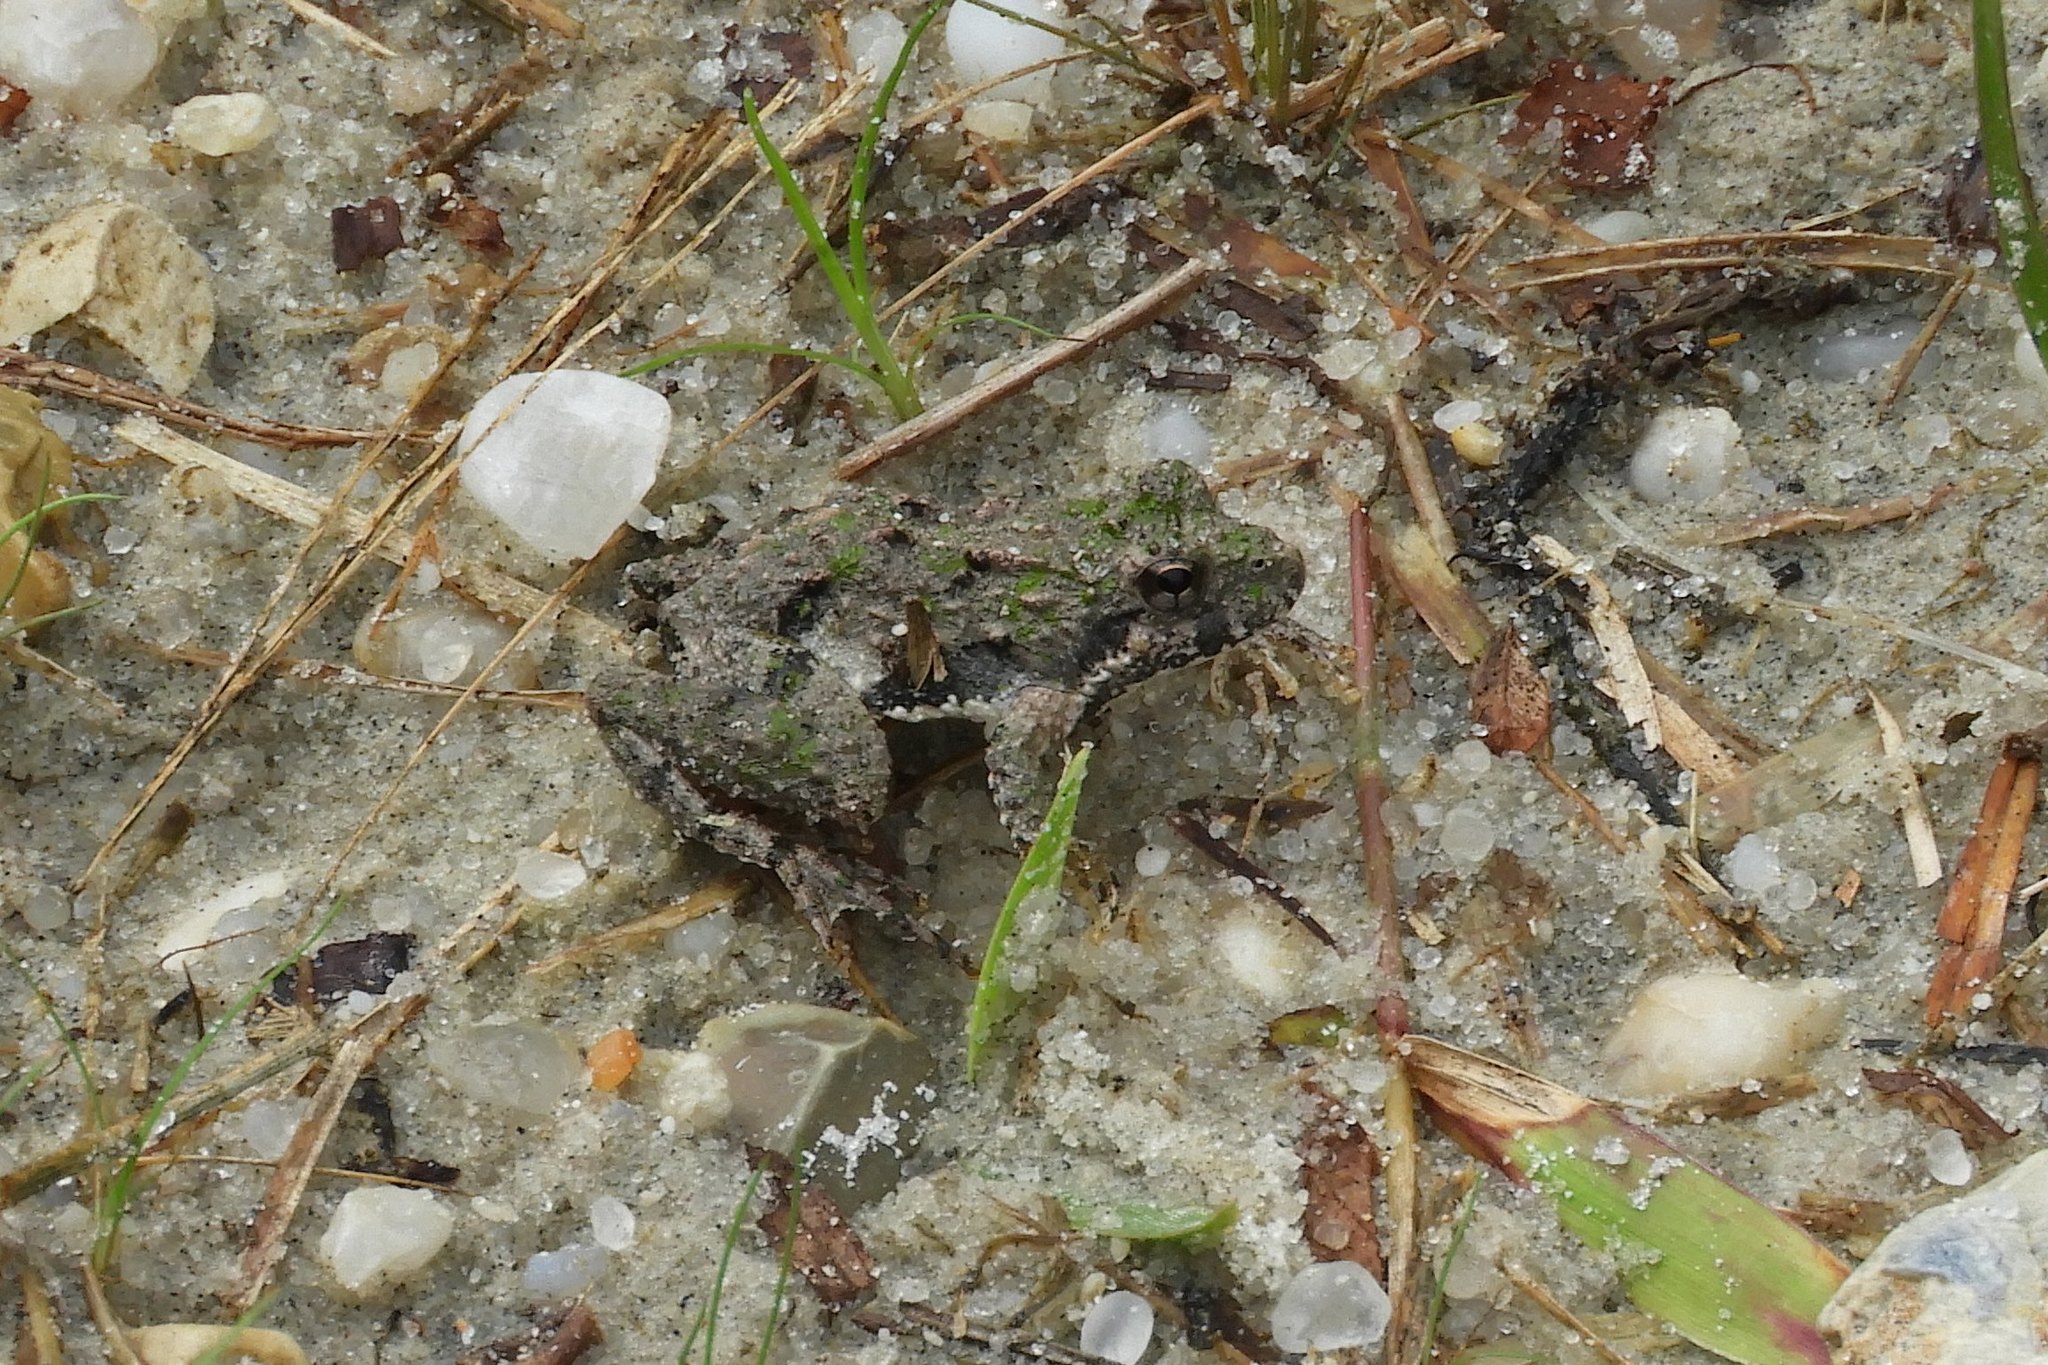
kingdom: Animalia
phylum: Chordata
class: Amphibia
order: Anura
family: Hylidae
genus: Acris
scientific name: Acris crepitans
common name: Northern cricket frog
